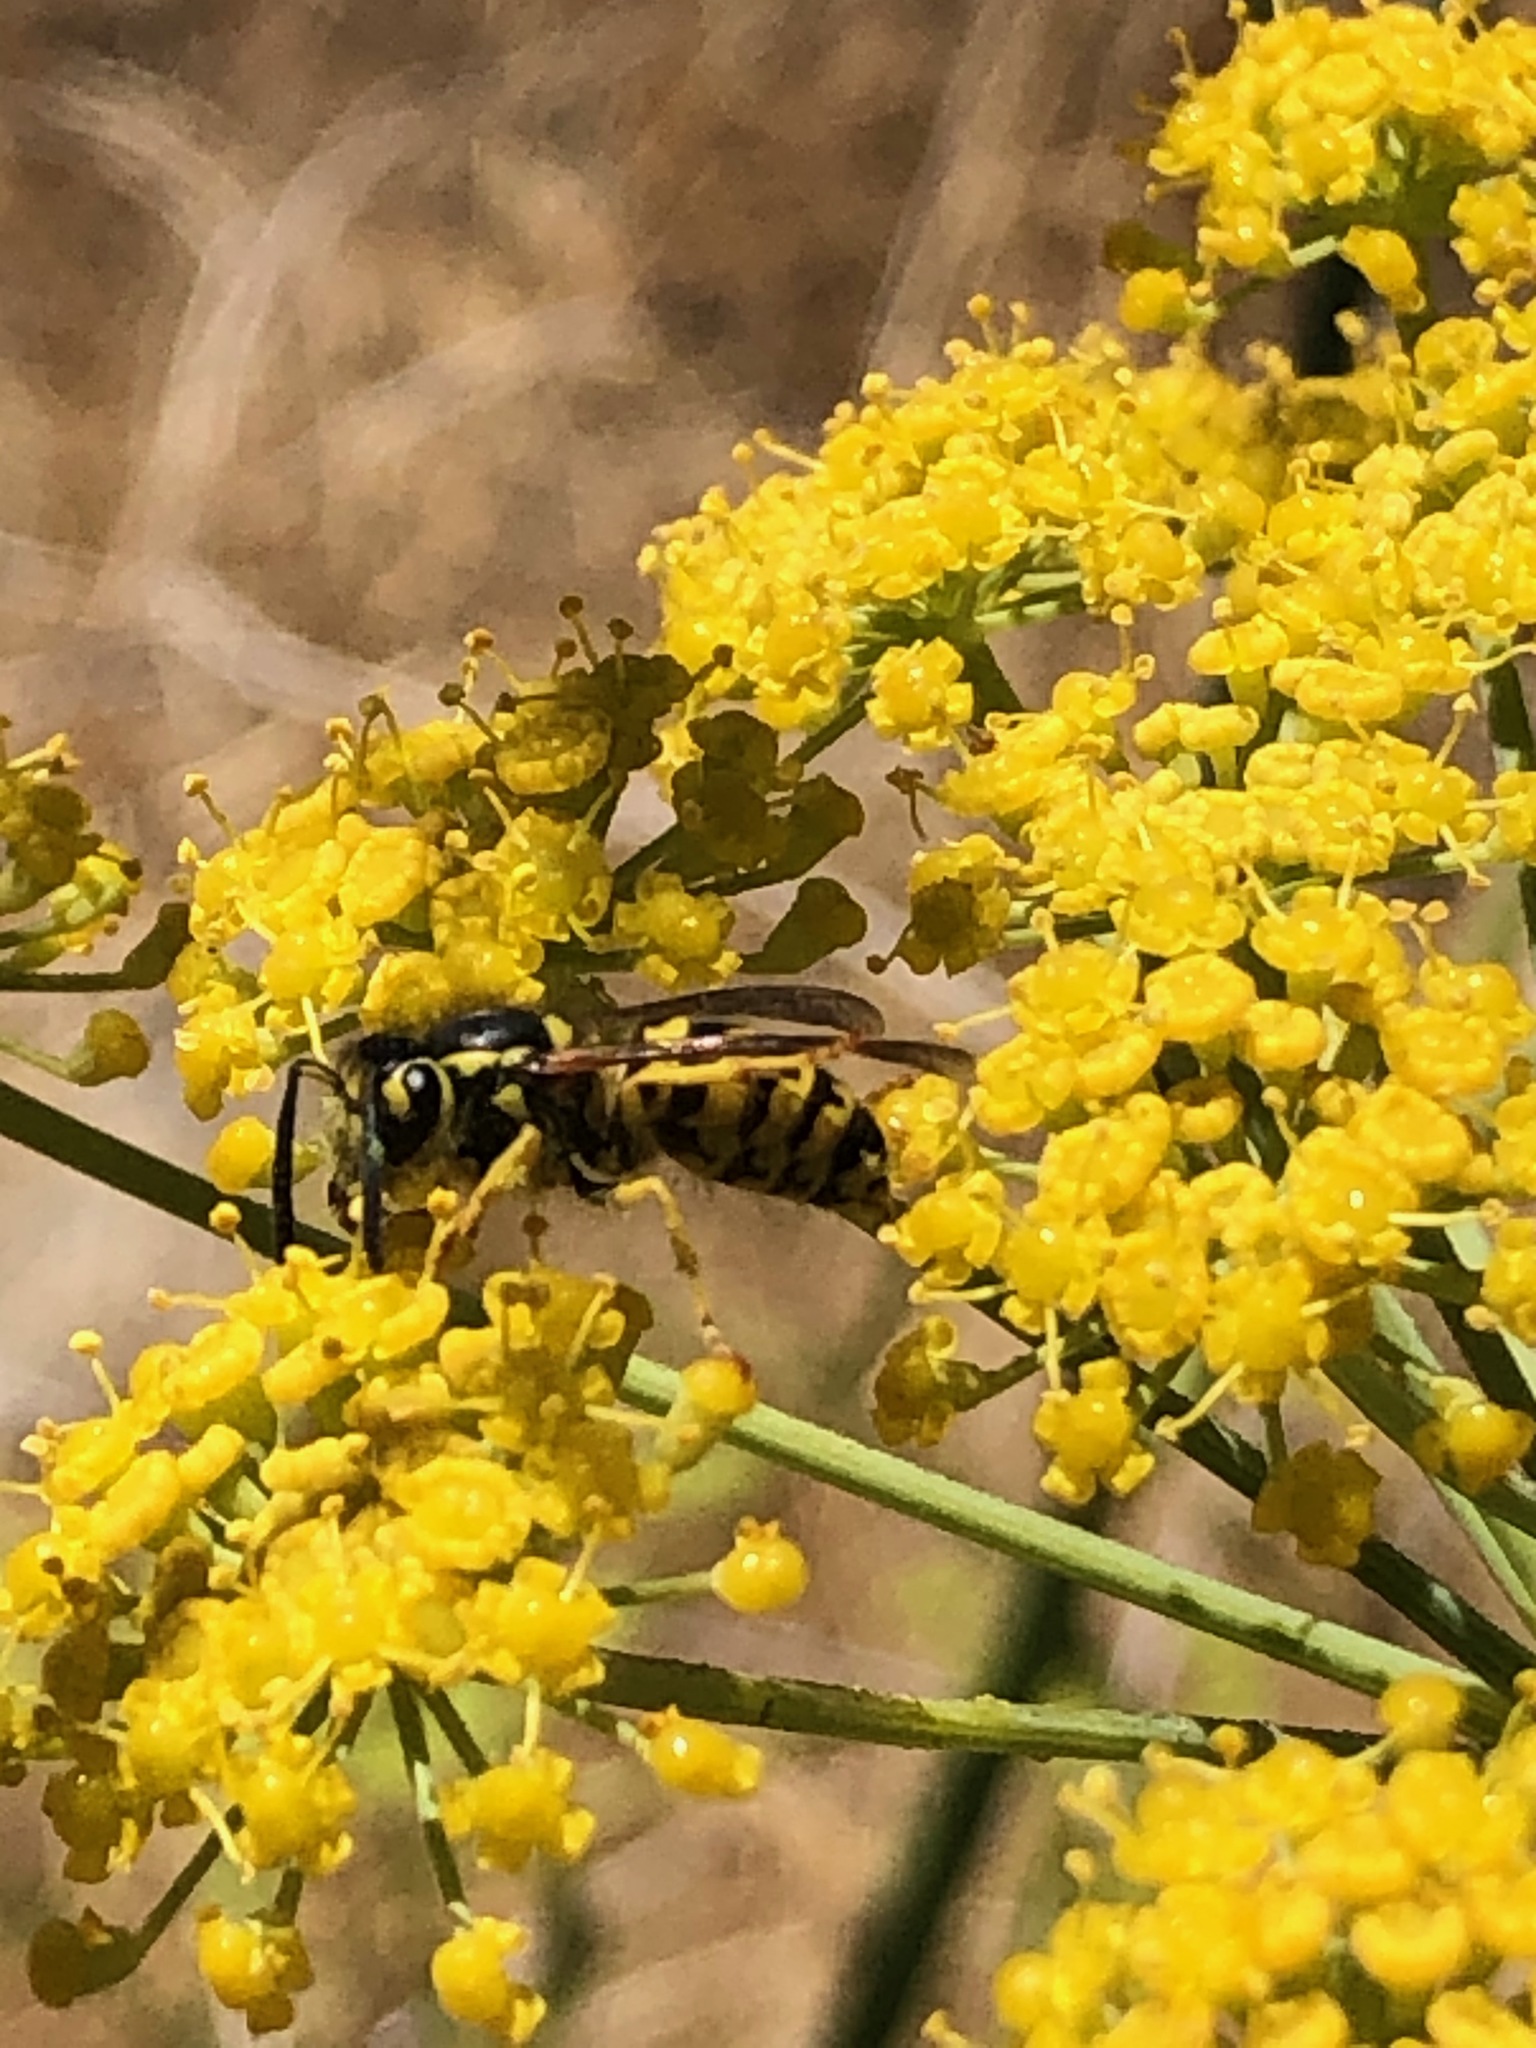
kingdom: Animalia
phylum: Arthropoda
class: Insecta
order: Hymenoptera
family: Vespidae
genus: Vespula
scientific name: Vespula pensylvanica
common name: Western yellowjacket
